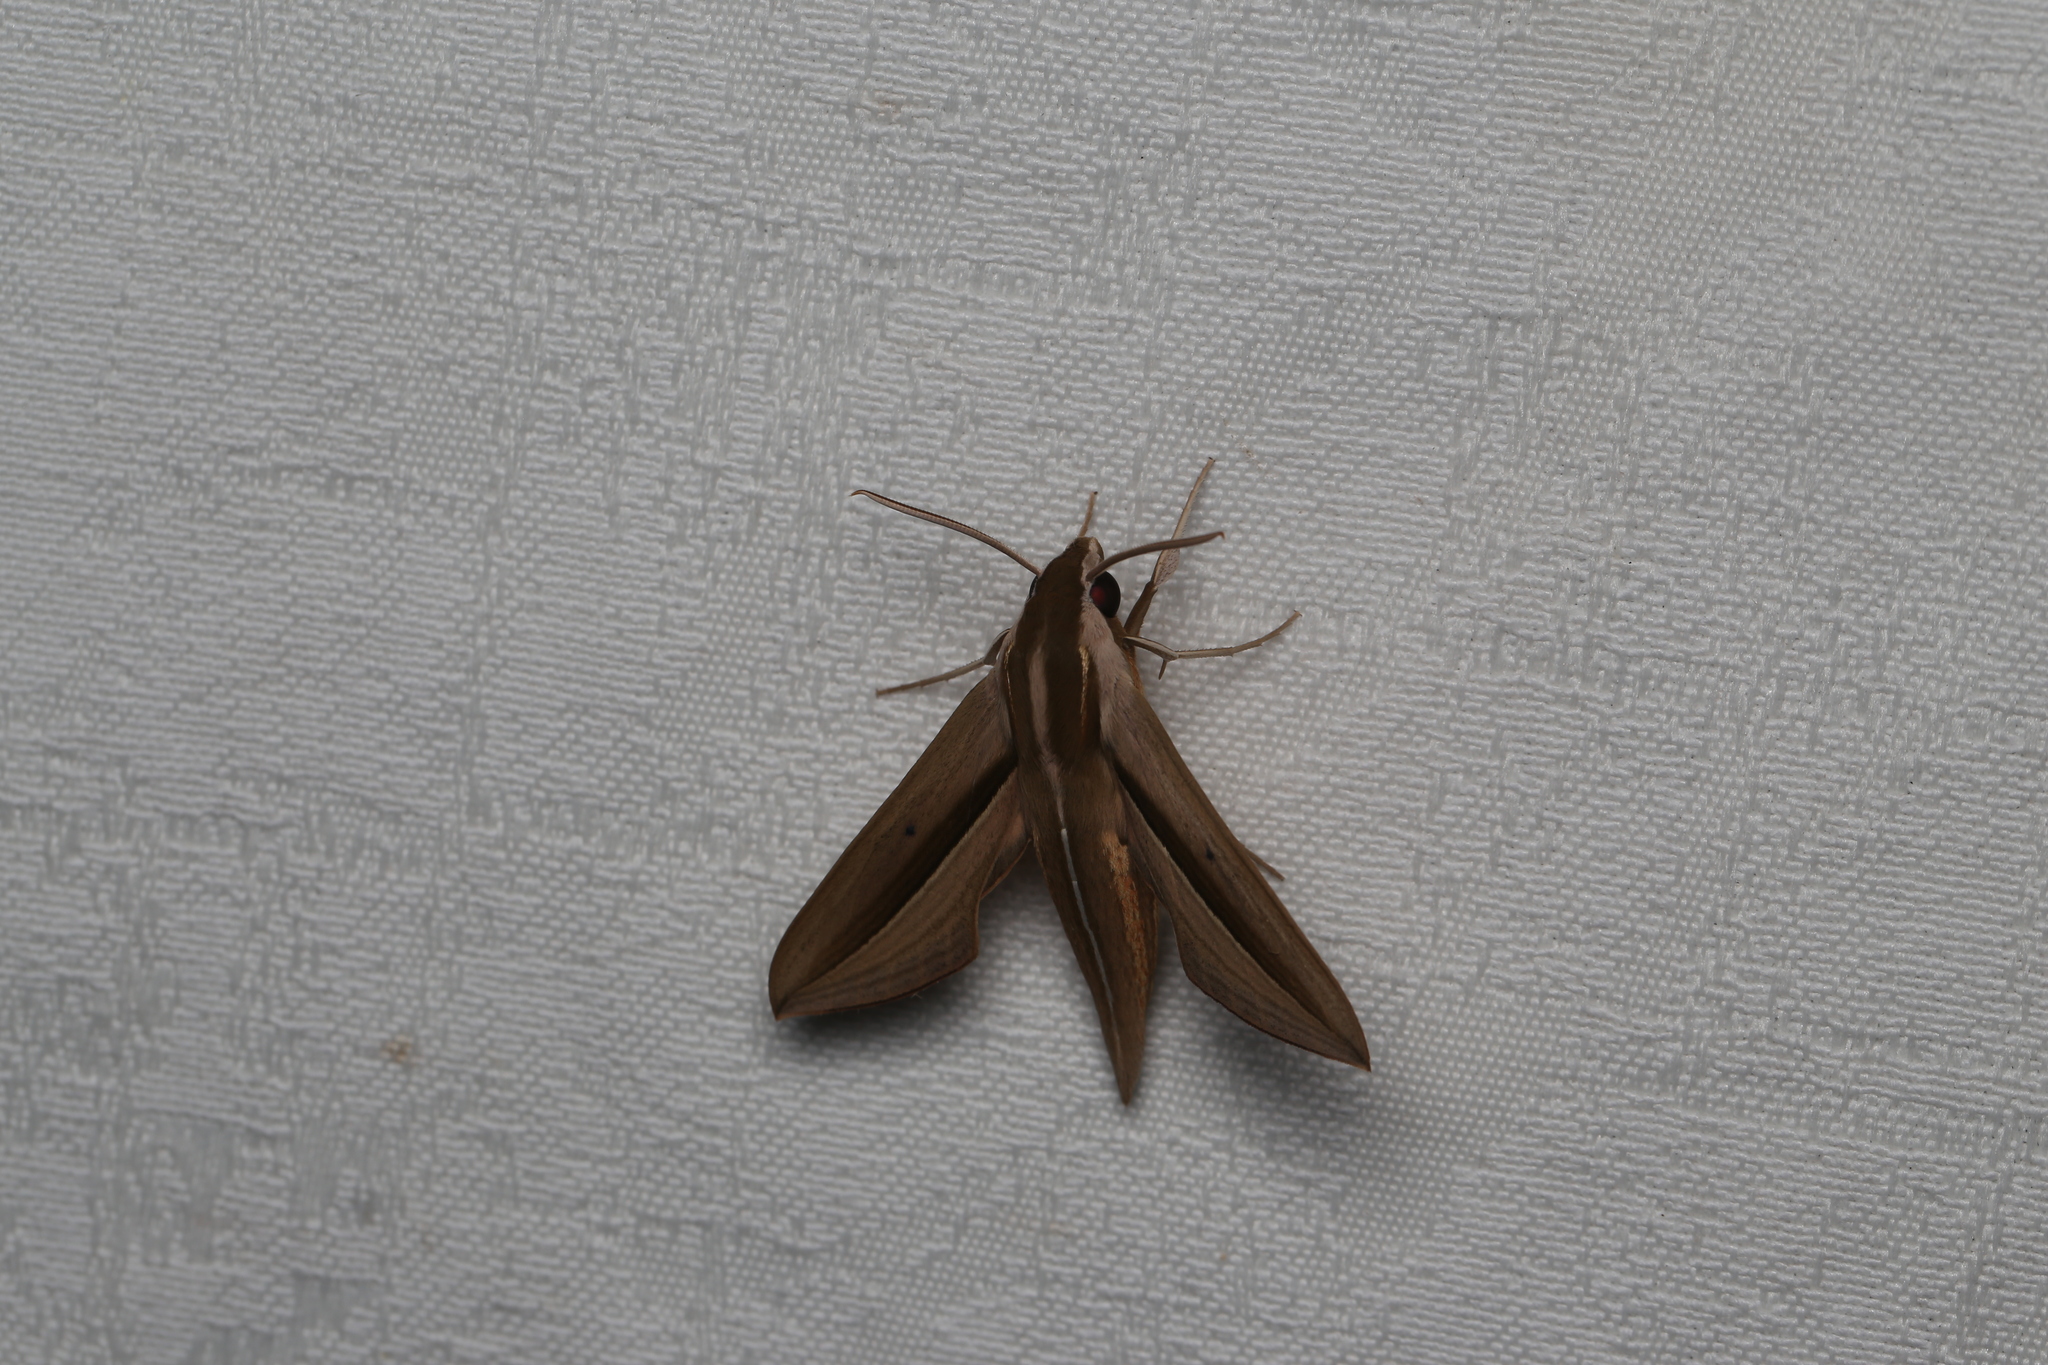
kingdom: Animalia
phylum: Arthropoda
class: Insecta
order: Lepidoptera
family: Sphingidae
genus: Theretra
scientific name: Theretra silhetensis
